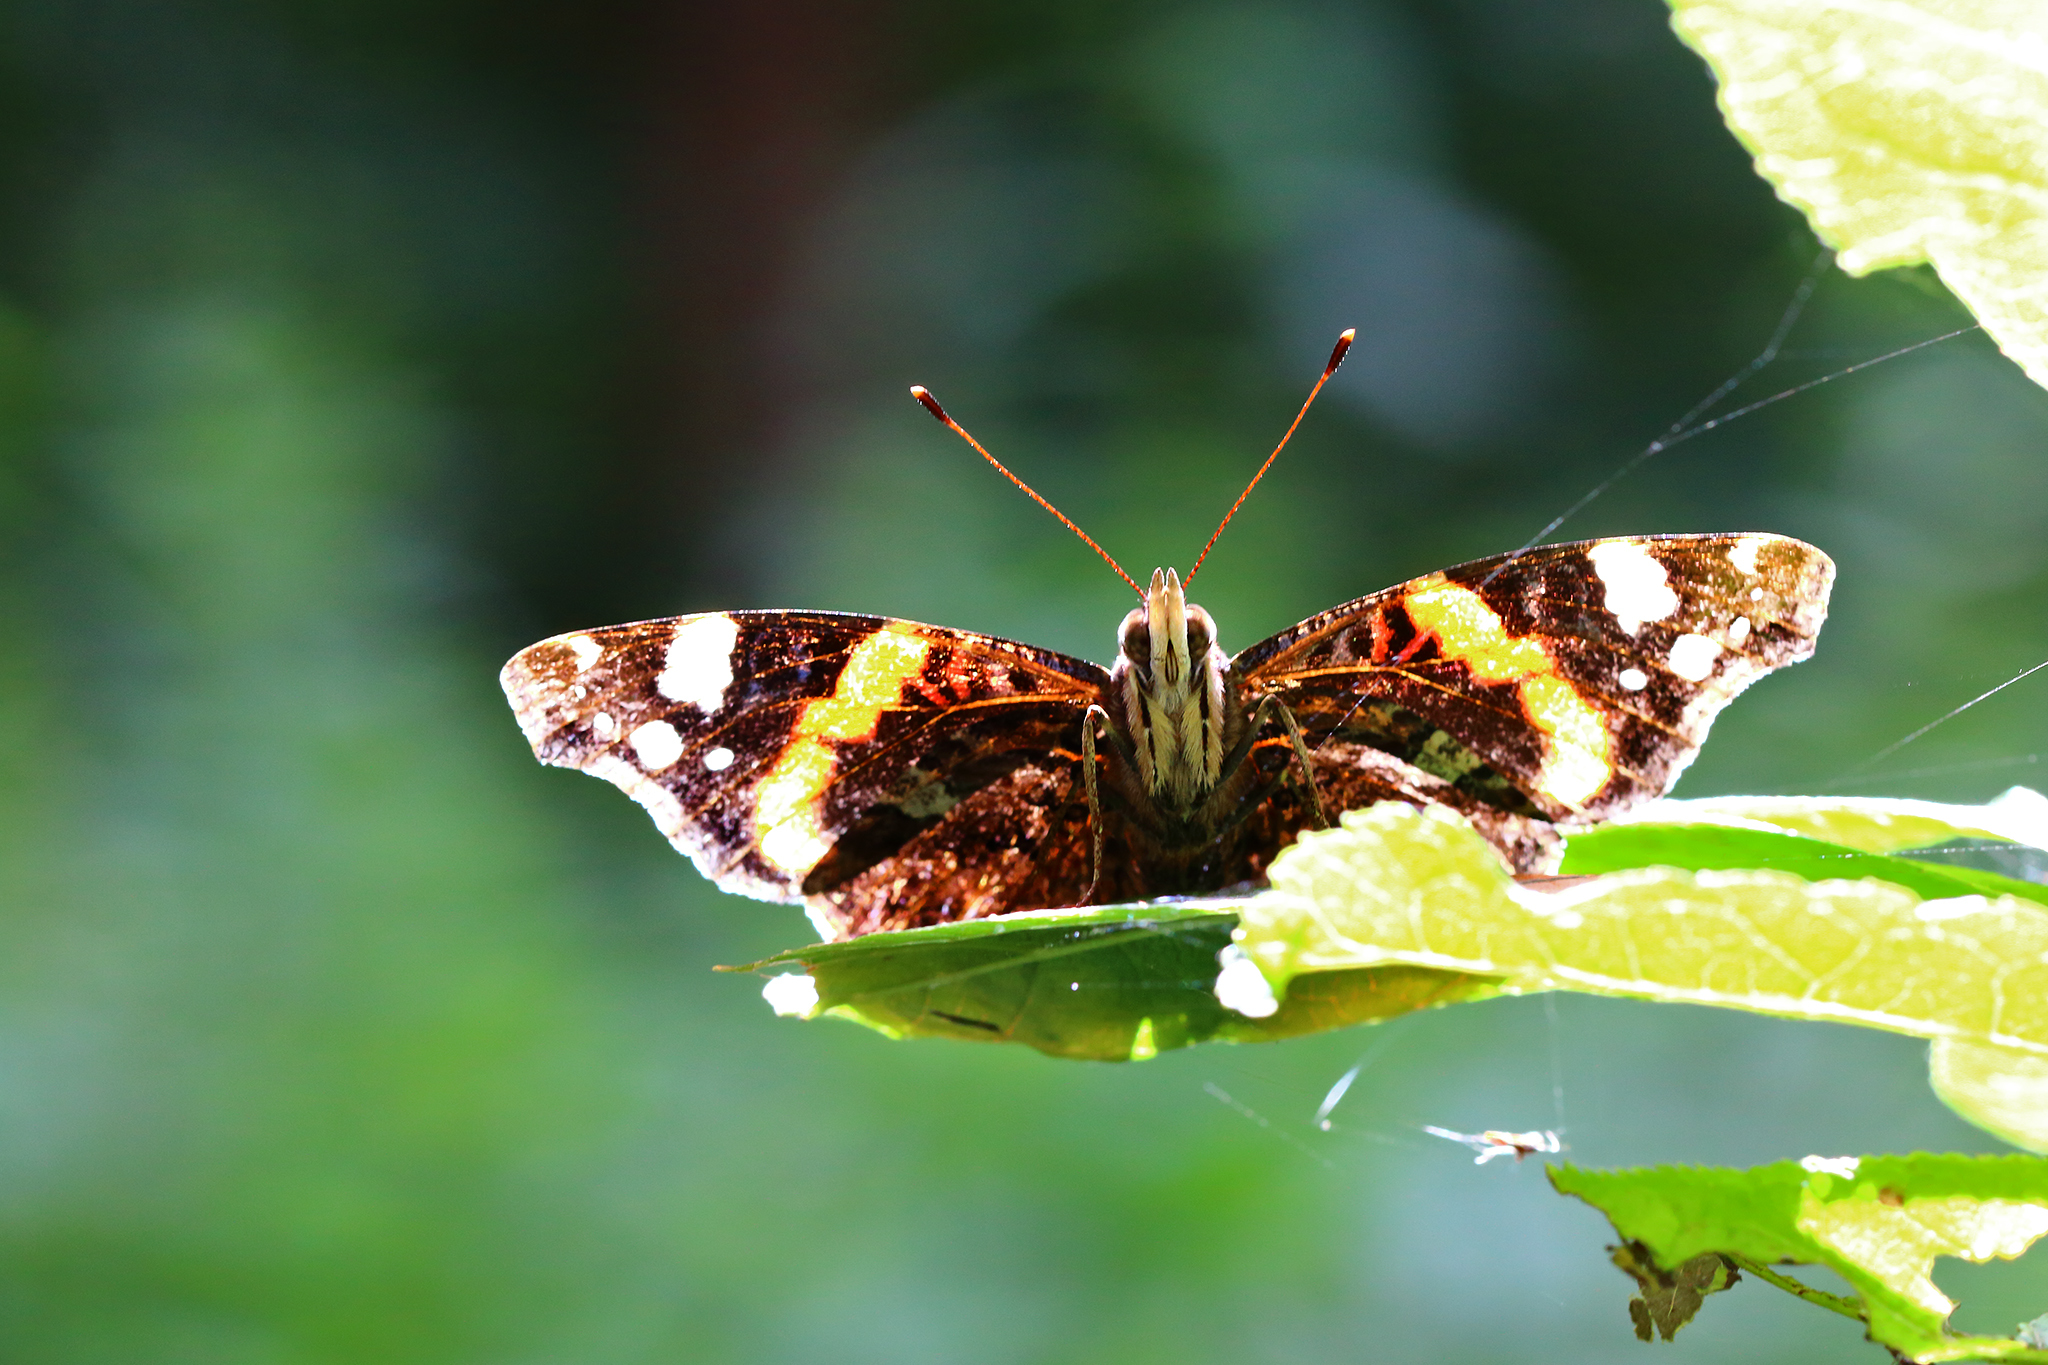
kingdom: Animalia
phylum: Arthropoda
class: Insecta
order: Lepidoptera
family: Nymphalidae
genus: Vanessa
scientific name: Vanessa atalanta
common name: Red admiral
